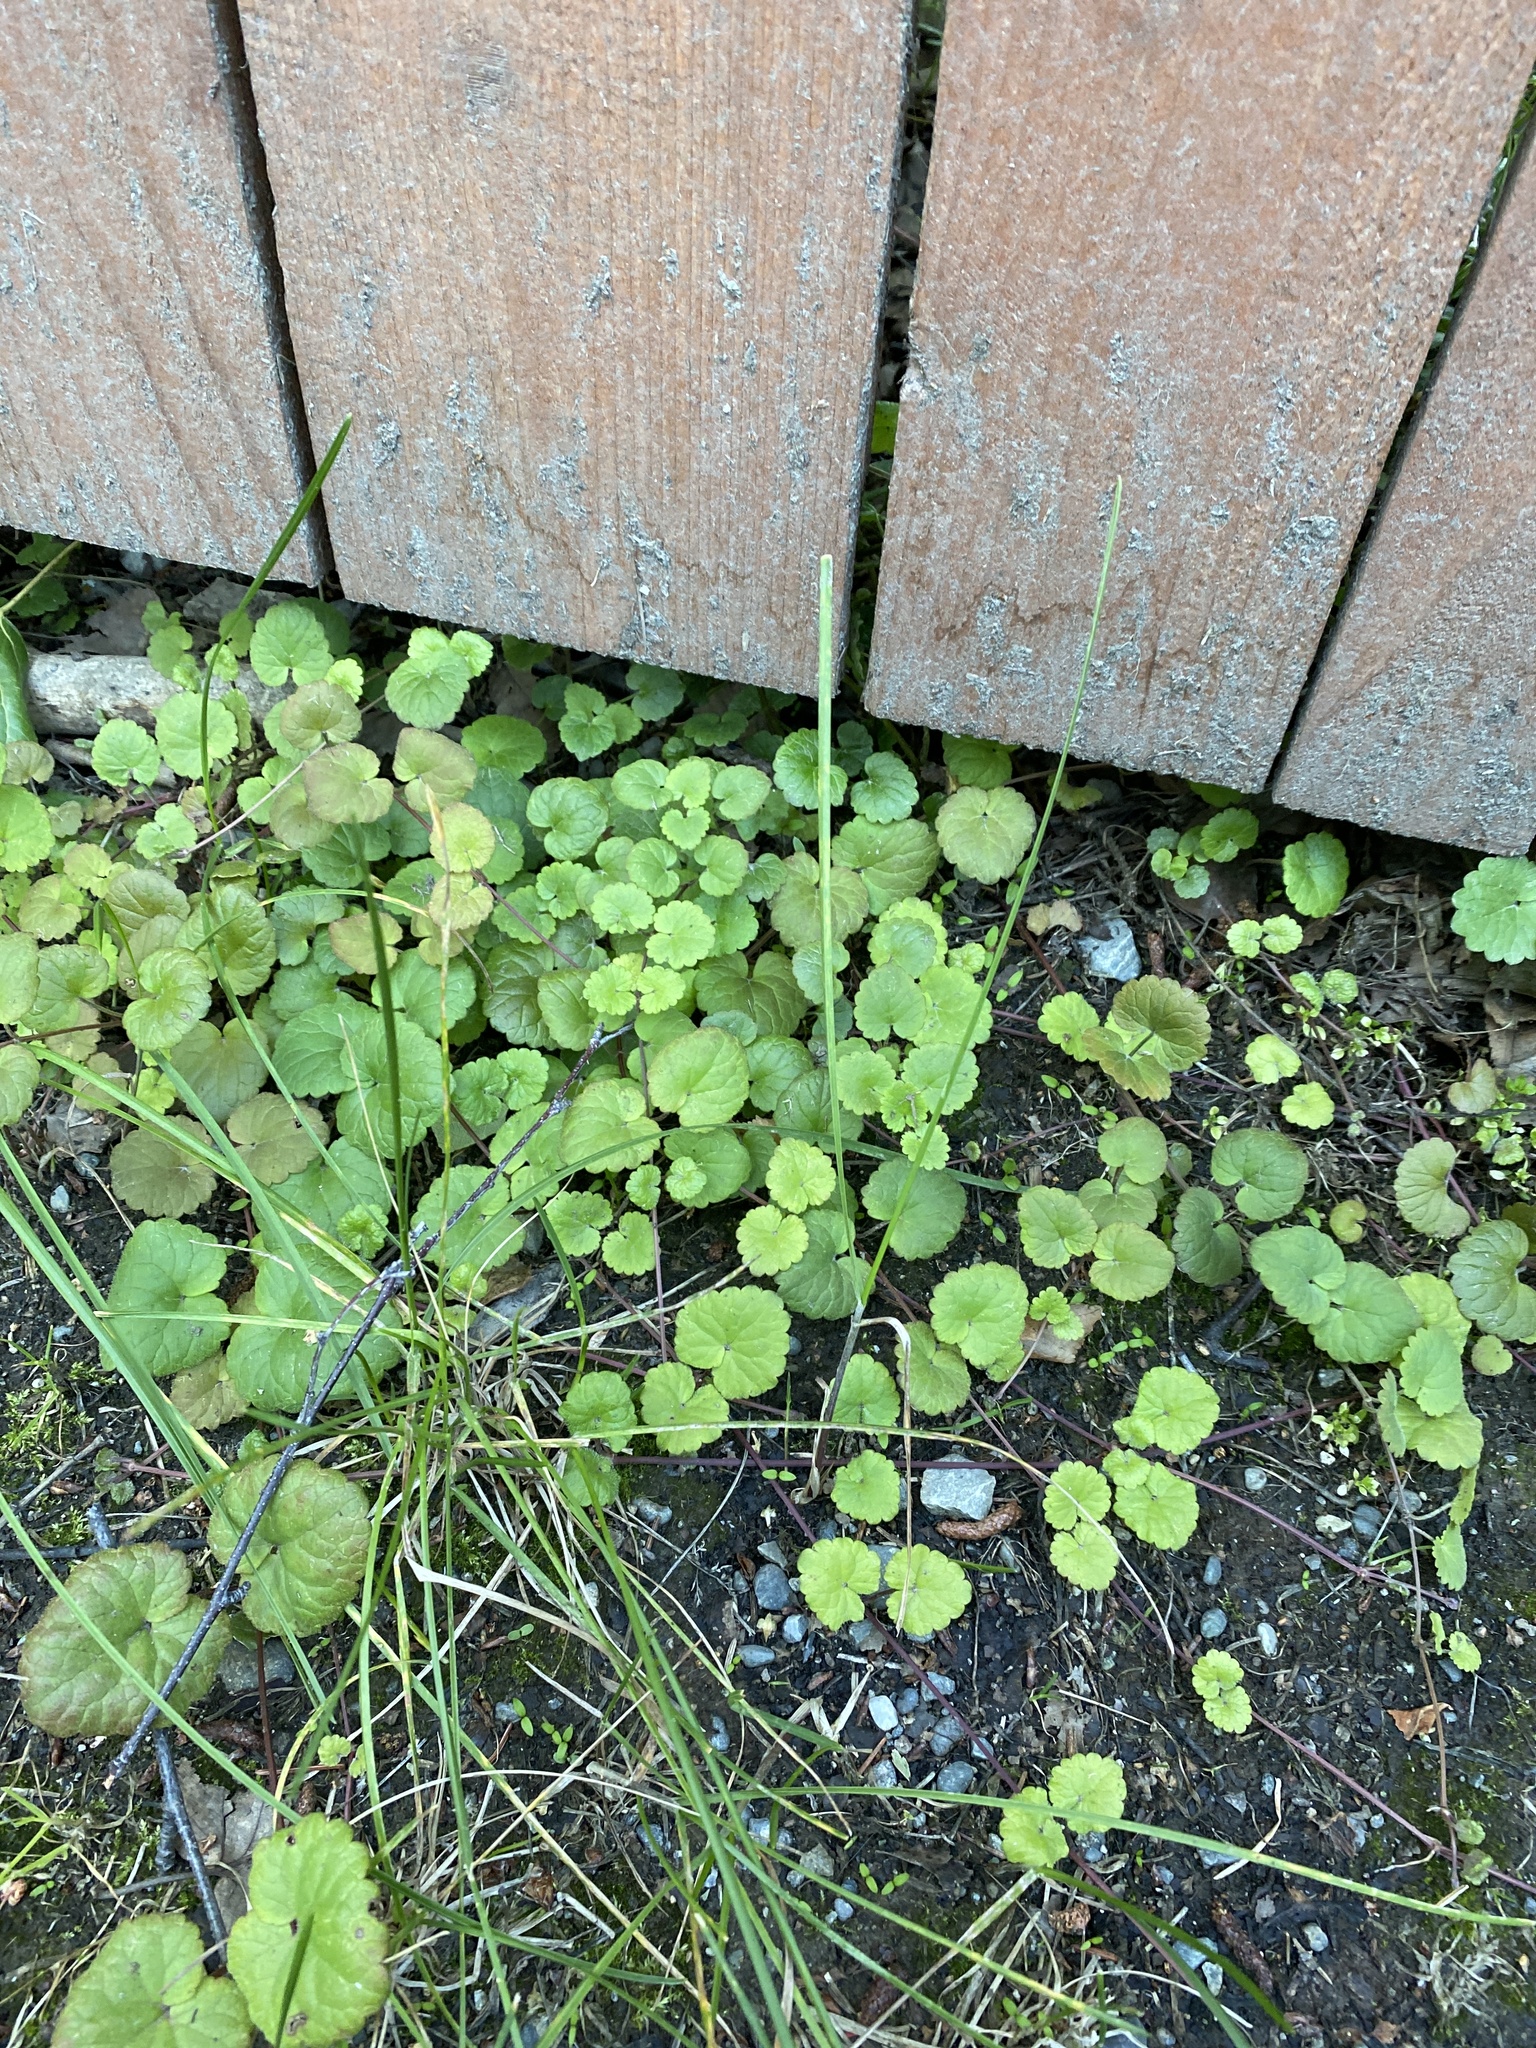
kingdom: Plantae
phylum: Tracheophyta
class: Magnoliopsida
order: Lamiales
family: Lamiaceae
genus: Glechoma
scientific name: Glechoma hederacea
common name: Ground ivy
